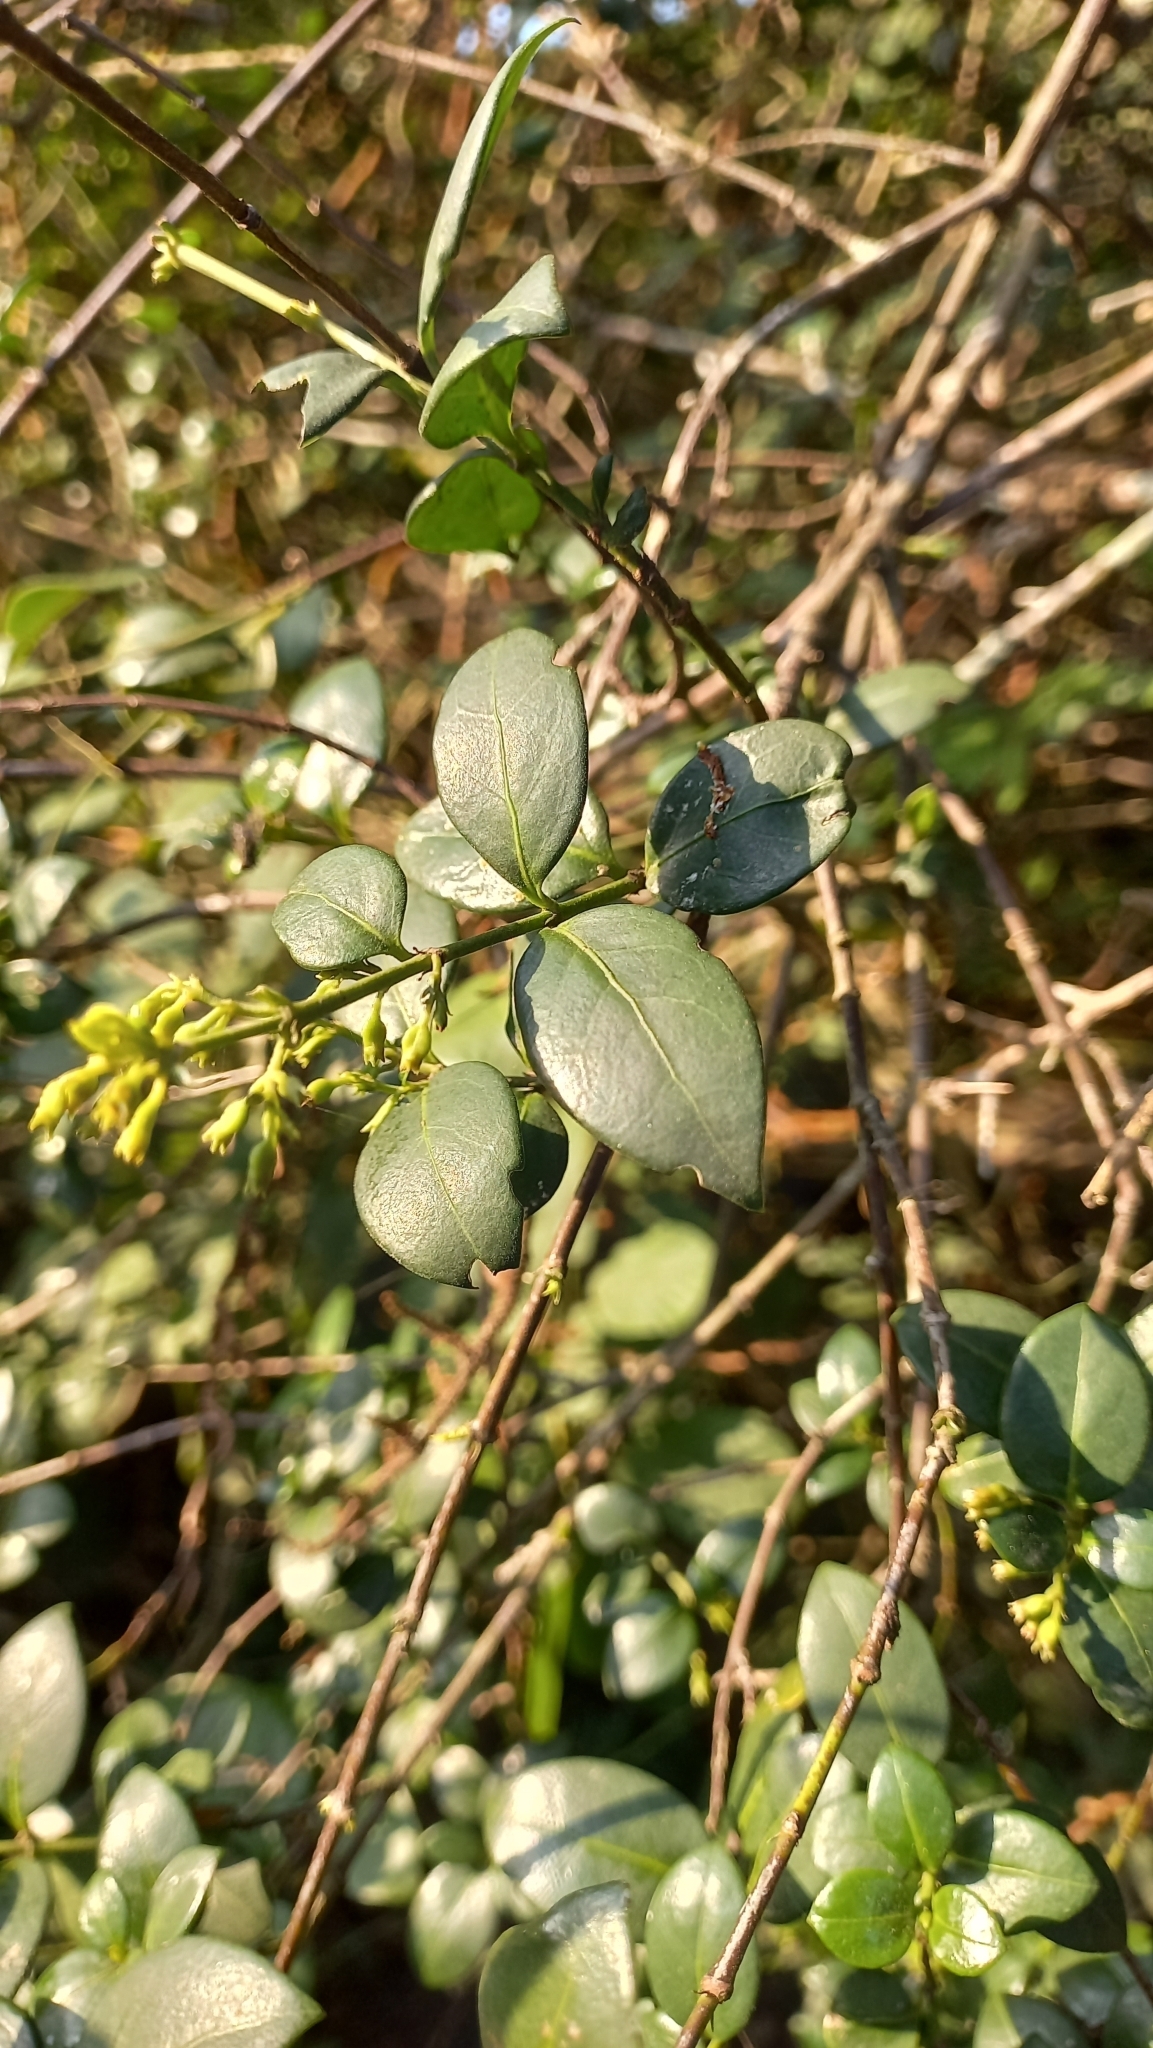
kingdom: Plantae
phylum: Tracheophyta
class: Magnoliopsida
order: Gentianales
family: Rubiaceae
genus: Chiococca
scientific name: Chiococca alba
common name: Snowberry
